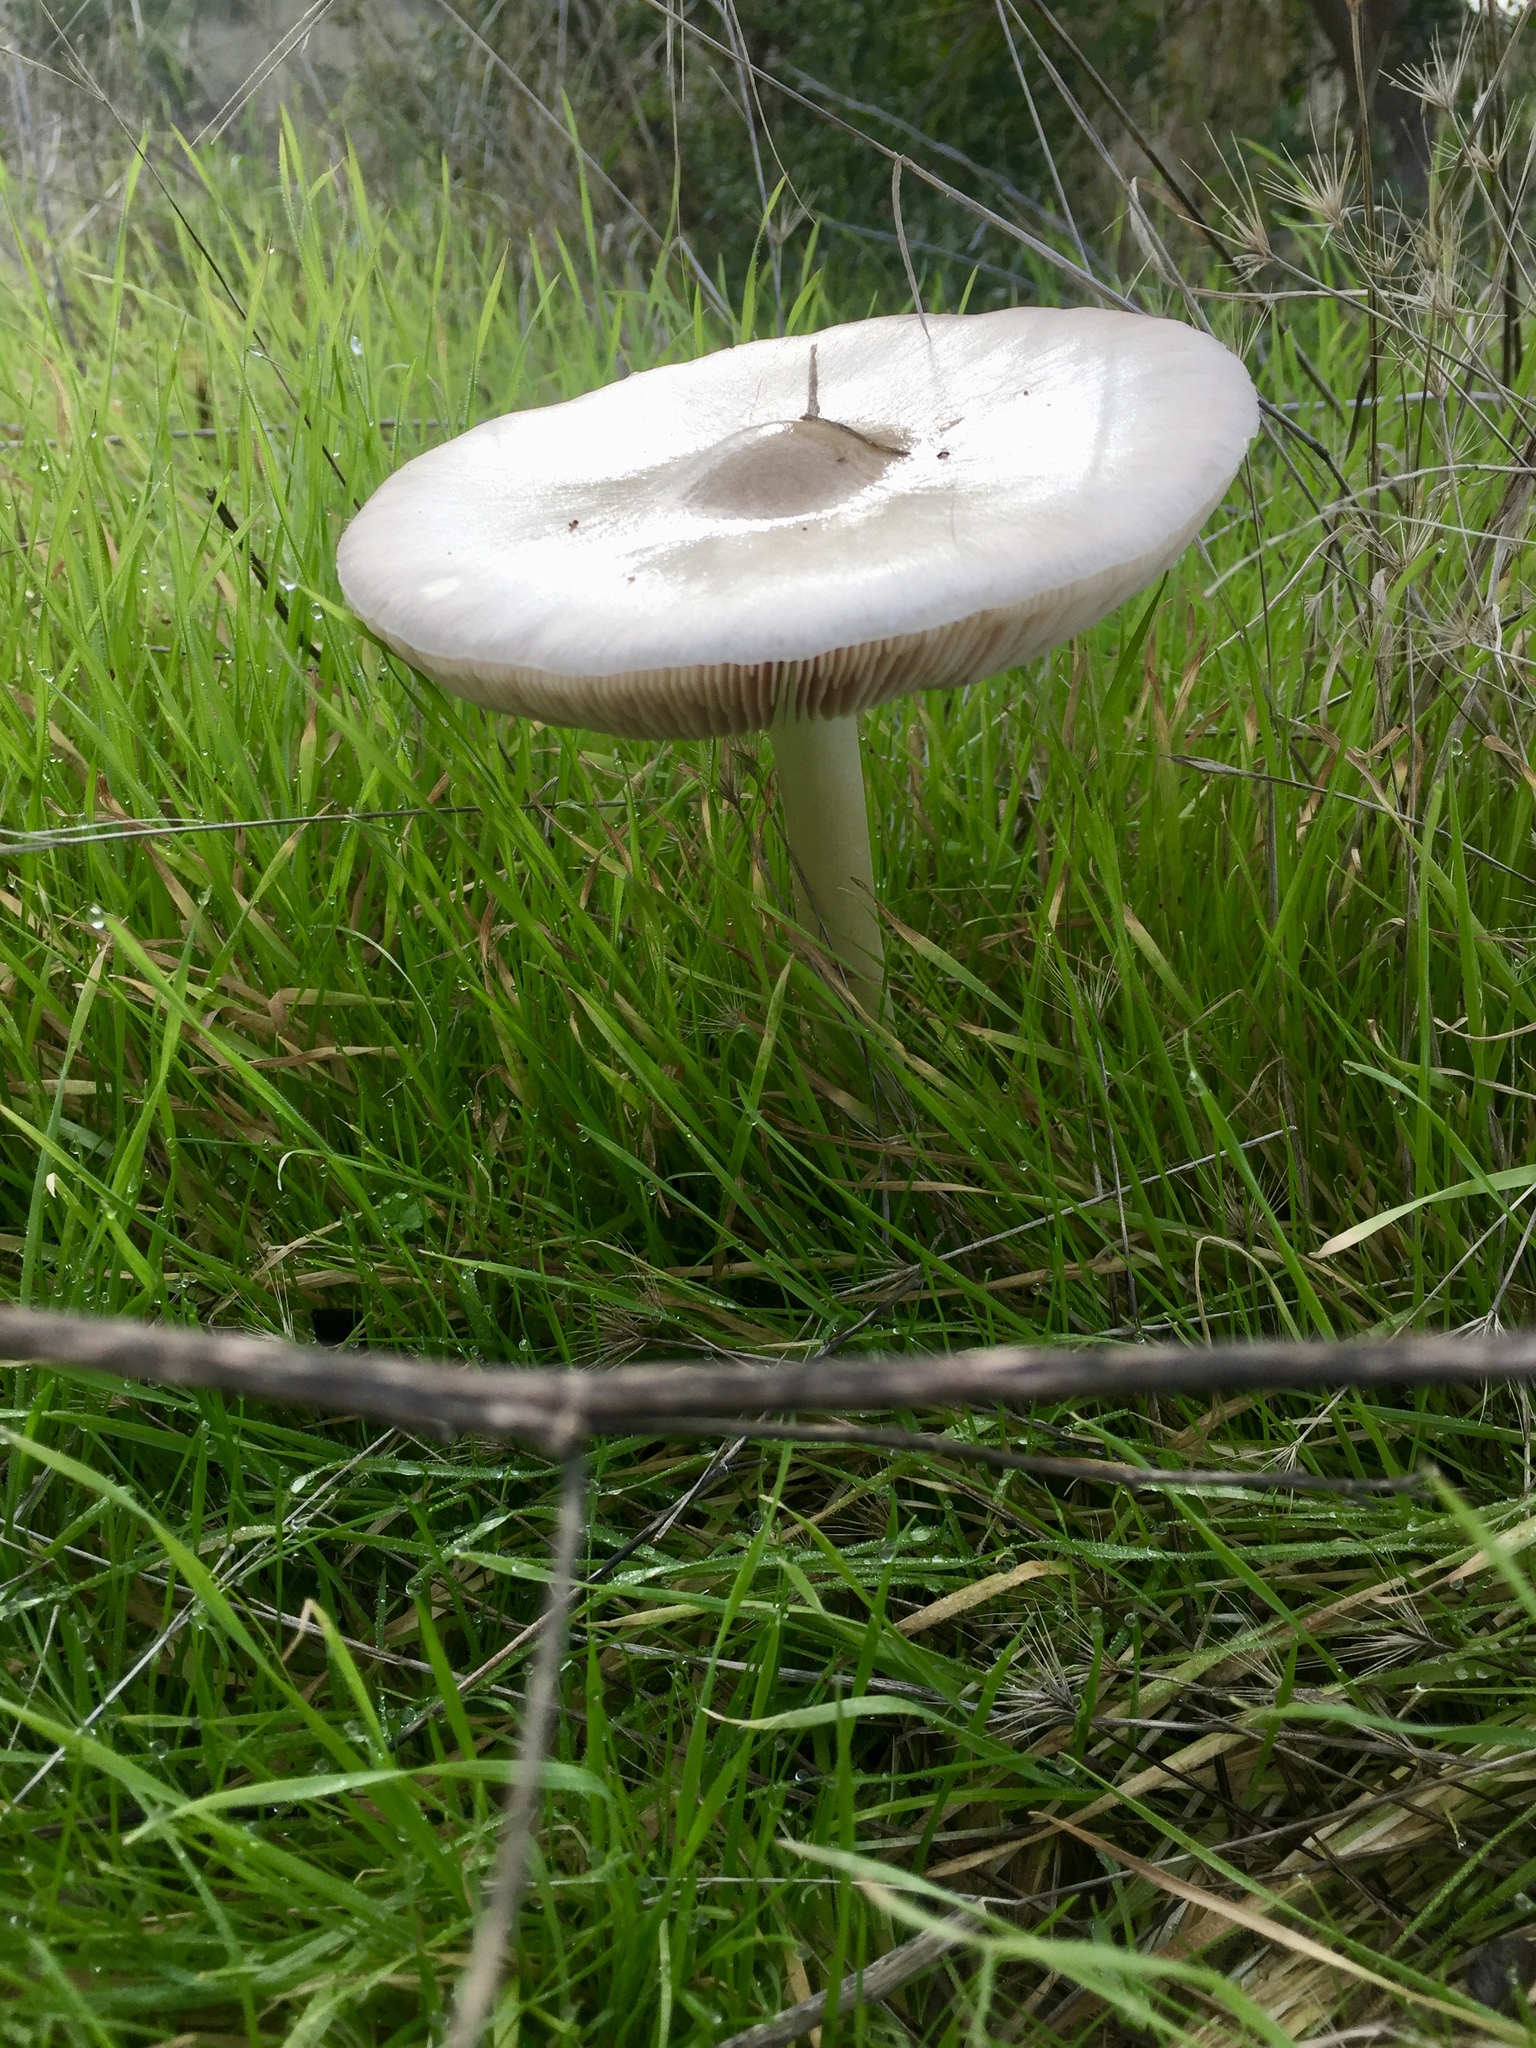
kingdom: Fungi
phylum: Basidiomycota
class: Agaricomycetes
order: Agaricales
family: Pluteaceae
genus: Volvopluteus
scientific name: Volvopluteus gloiocephalus
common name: Stubble rosegill
